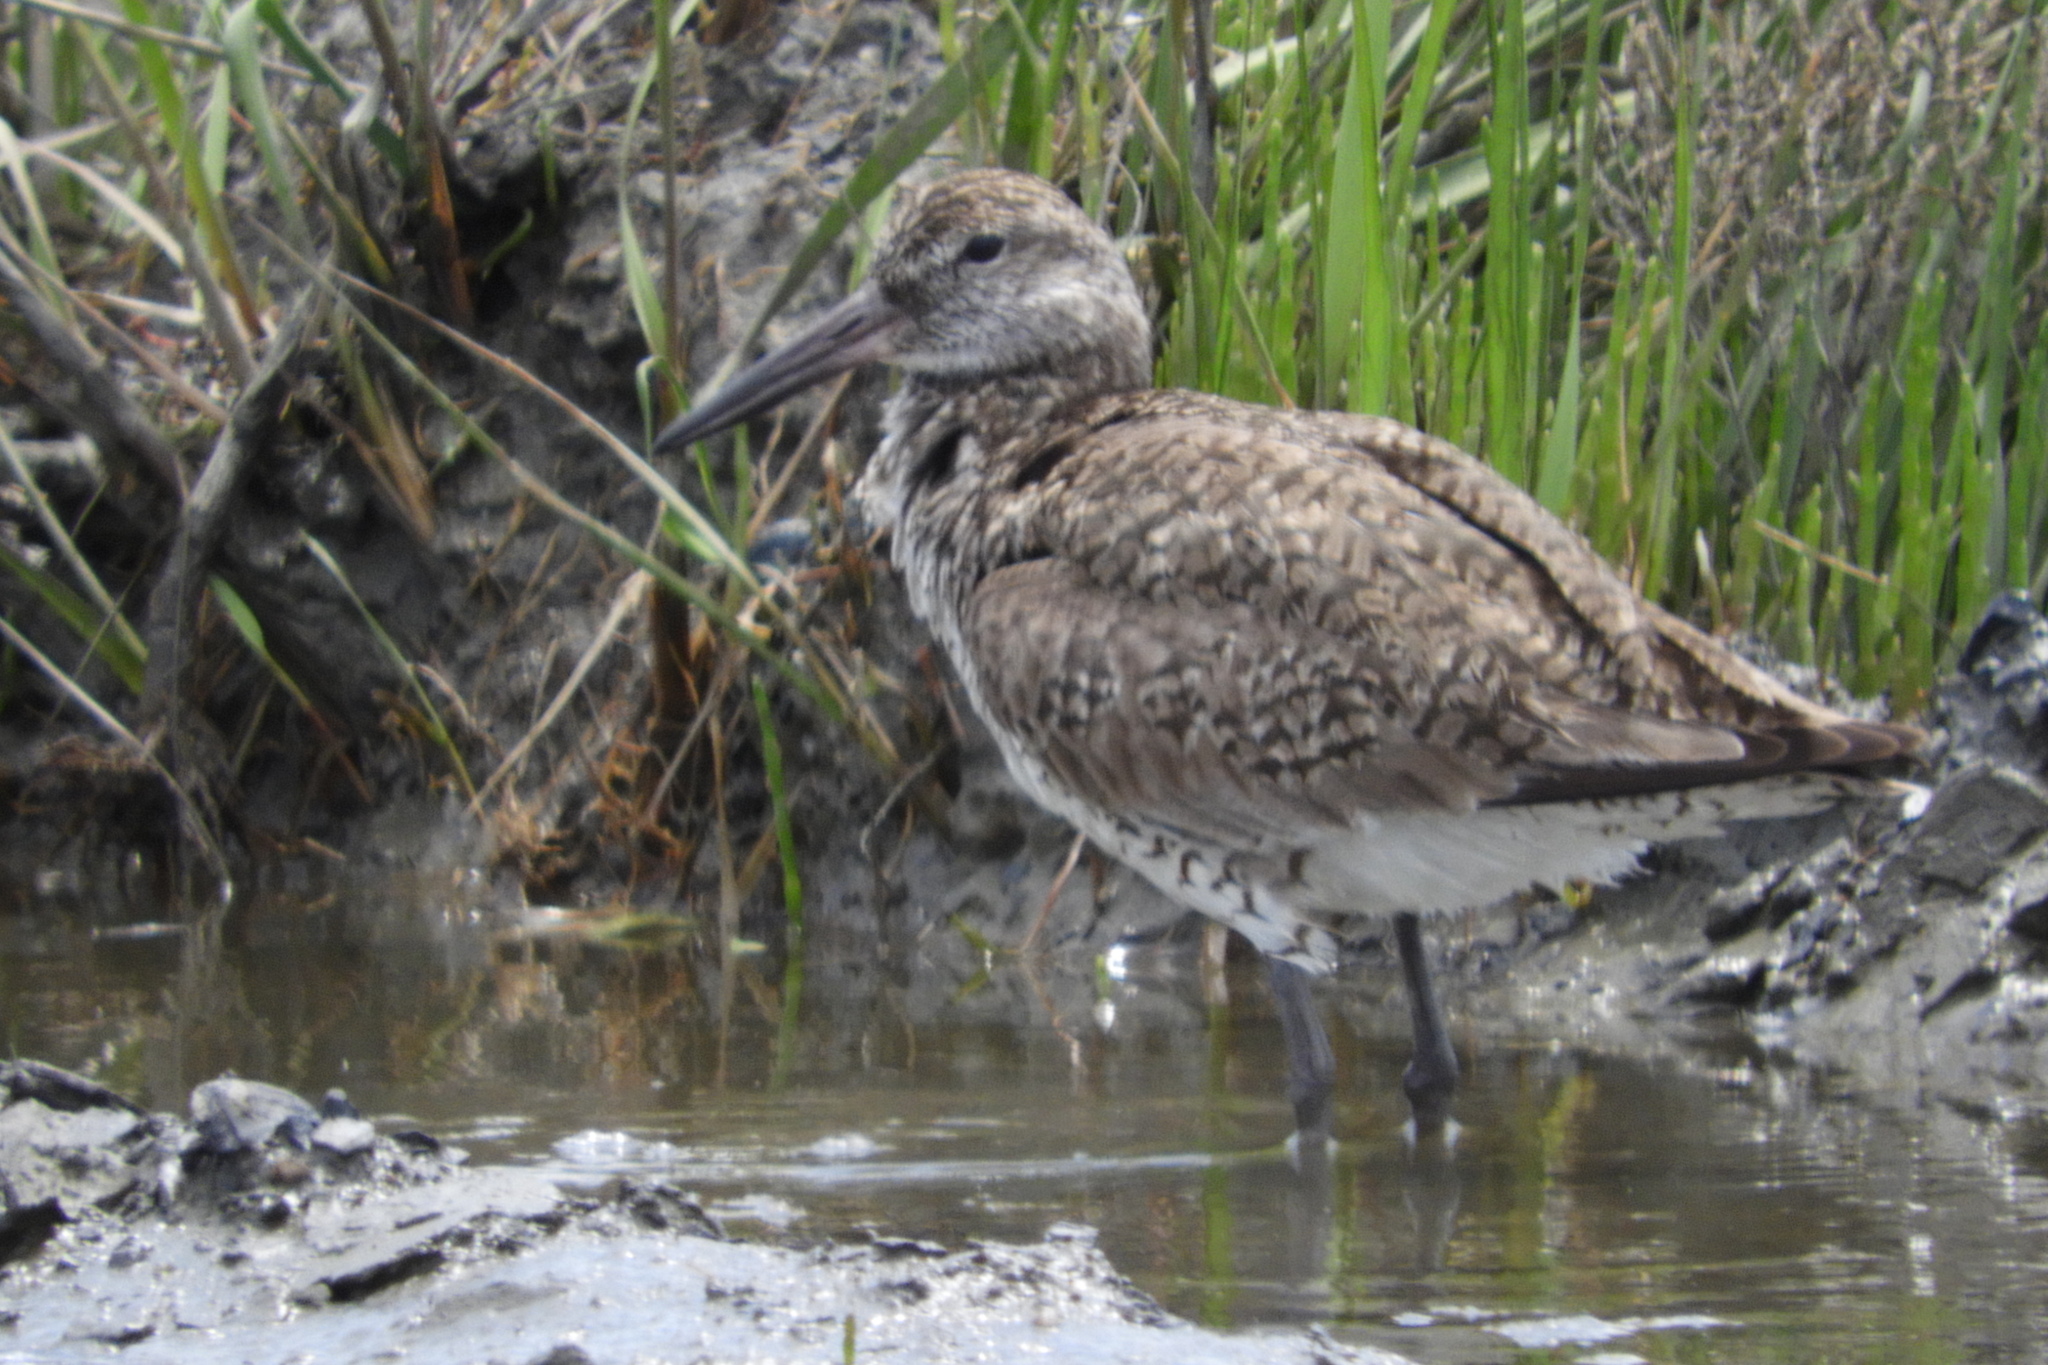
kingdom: Animalia
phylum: Chordata
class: Aves
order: Charadriiformes
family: Scolopacidae
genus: Tringa
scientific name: Tringa semipalmata
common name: Willet
